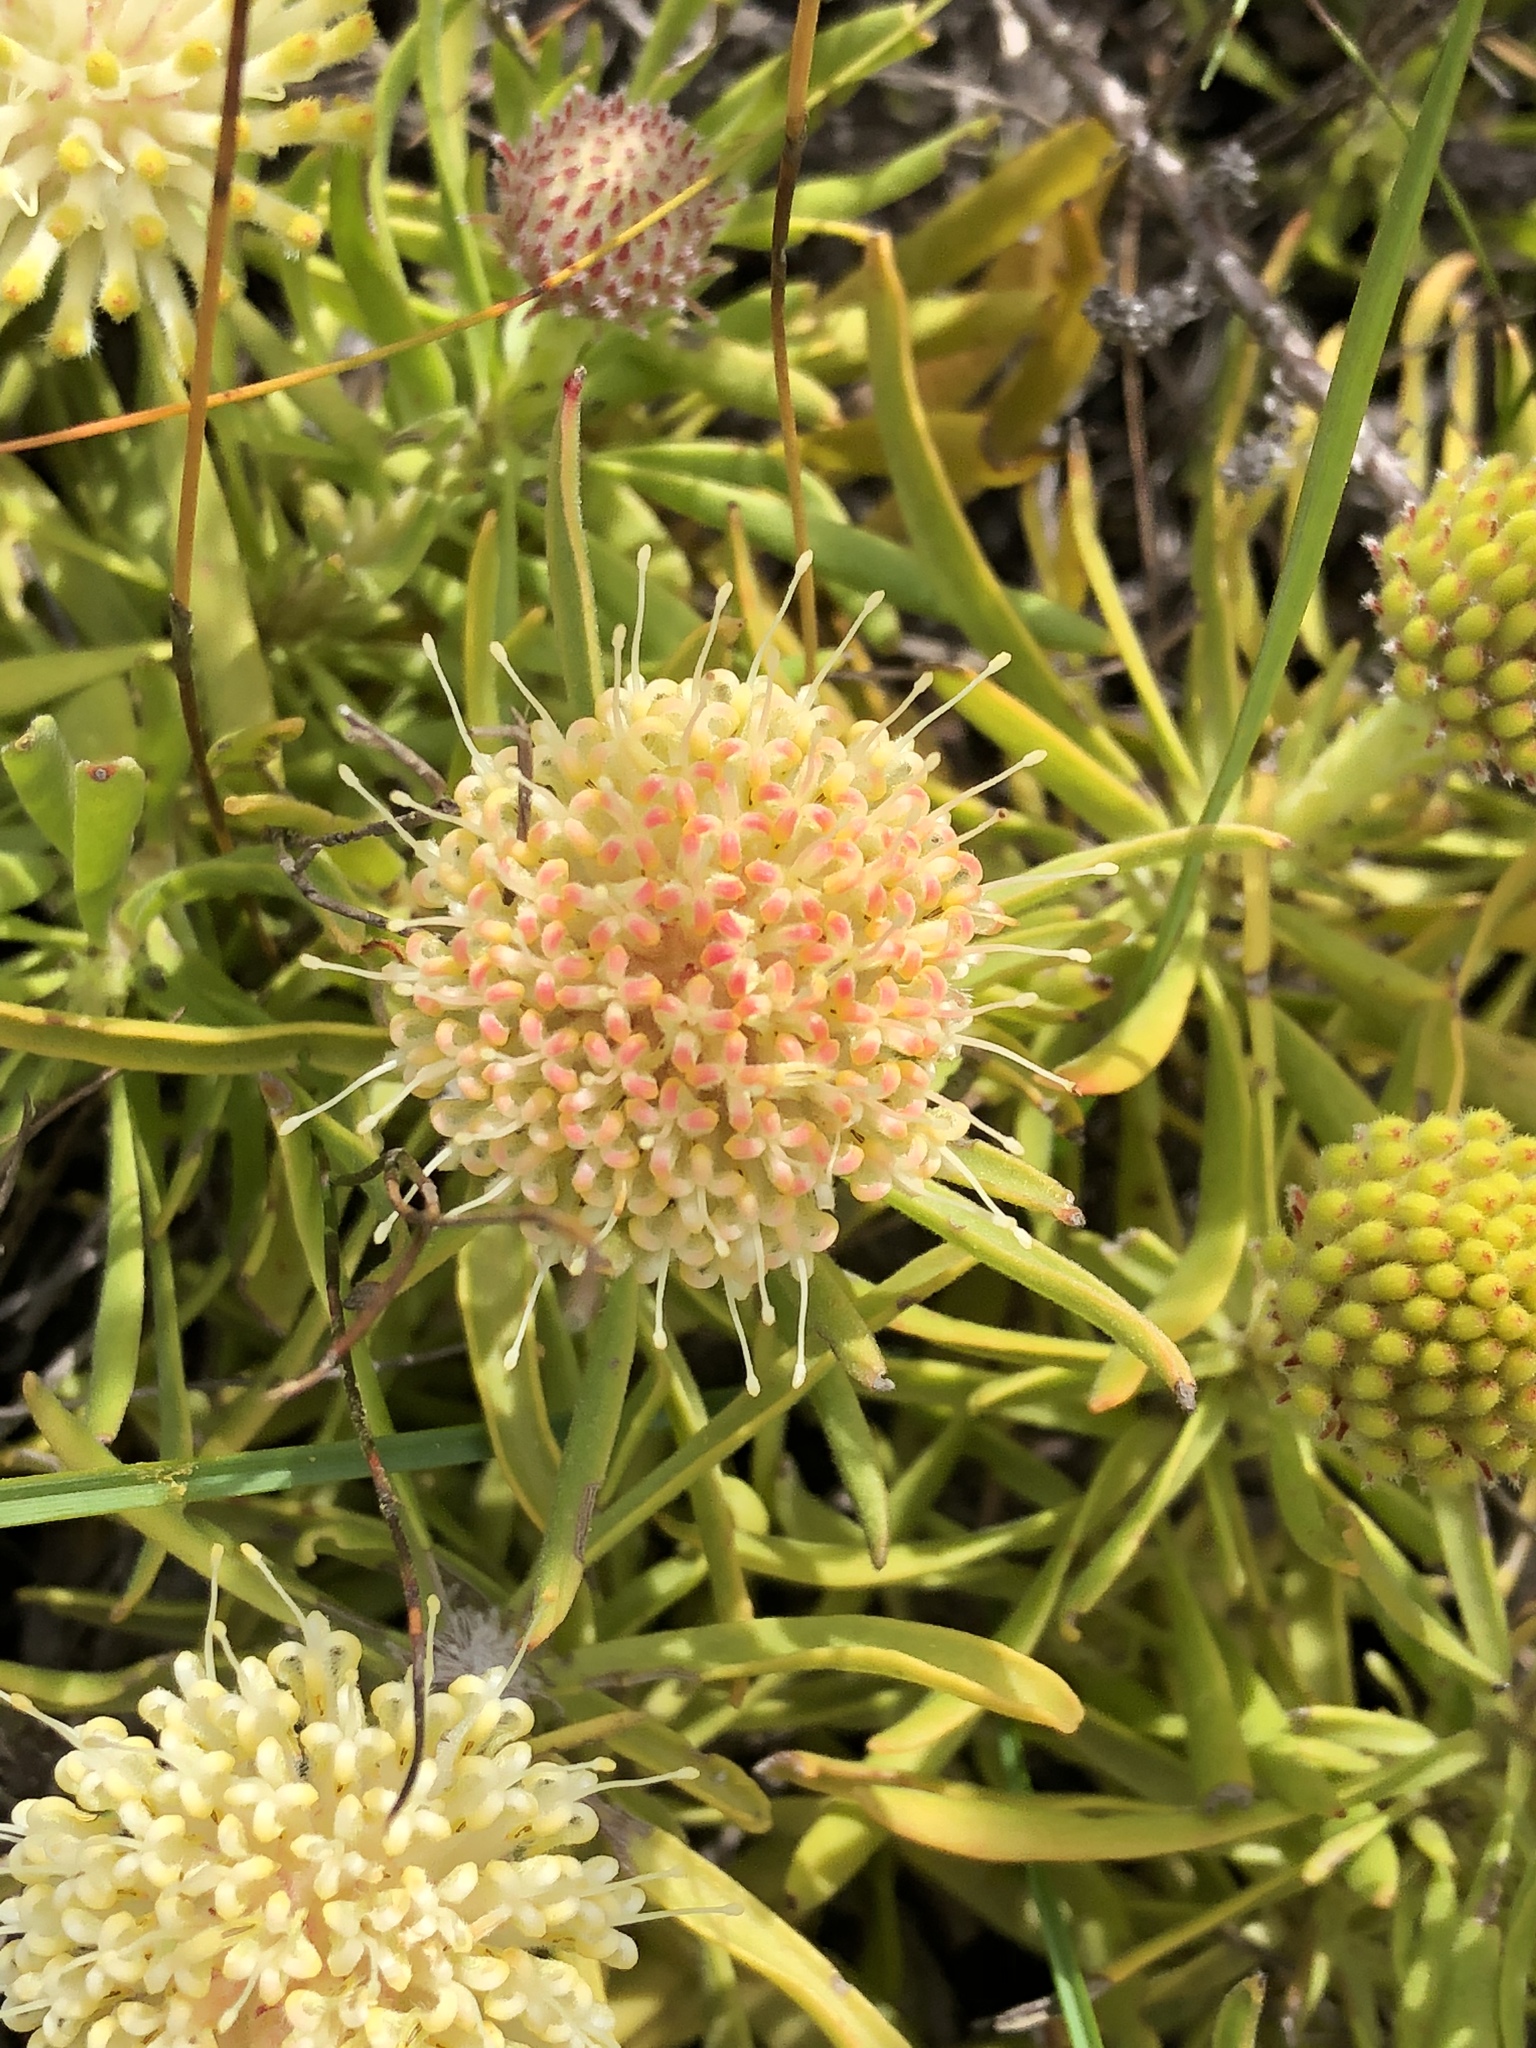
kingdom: Plantae
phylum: Tracheophyta
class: Magnoliopsida
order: Proteales
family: Proteaceae
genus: Leucospermum
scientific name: Leucospermum pedunculatum
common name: White-trailing pincushion
